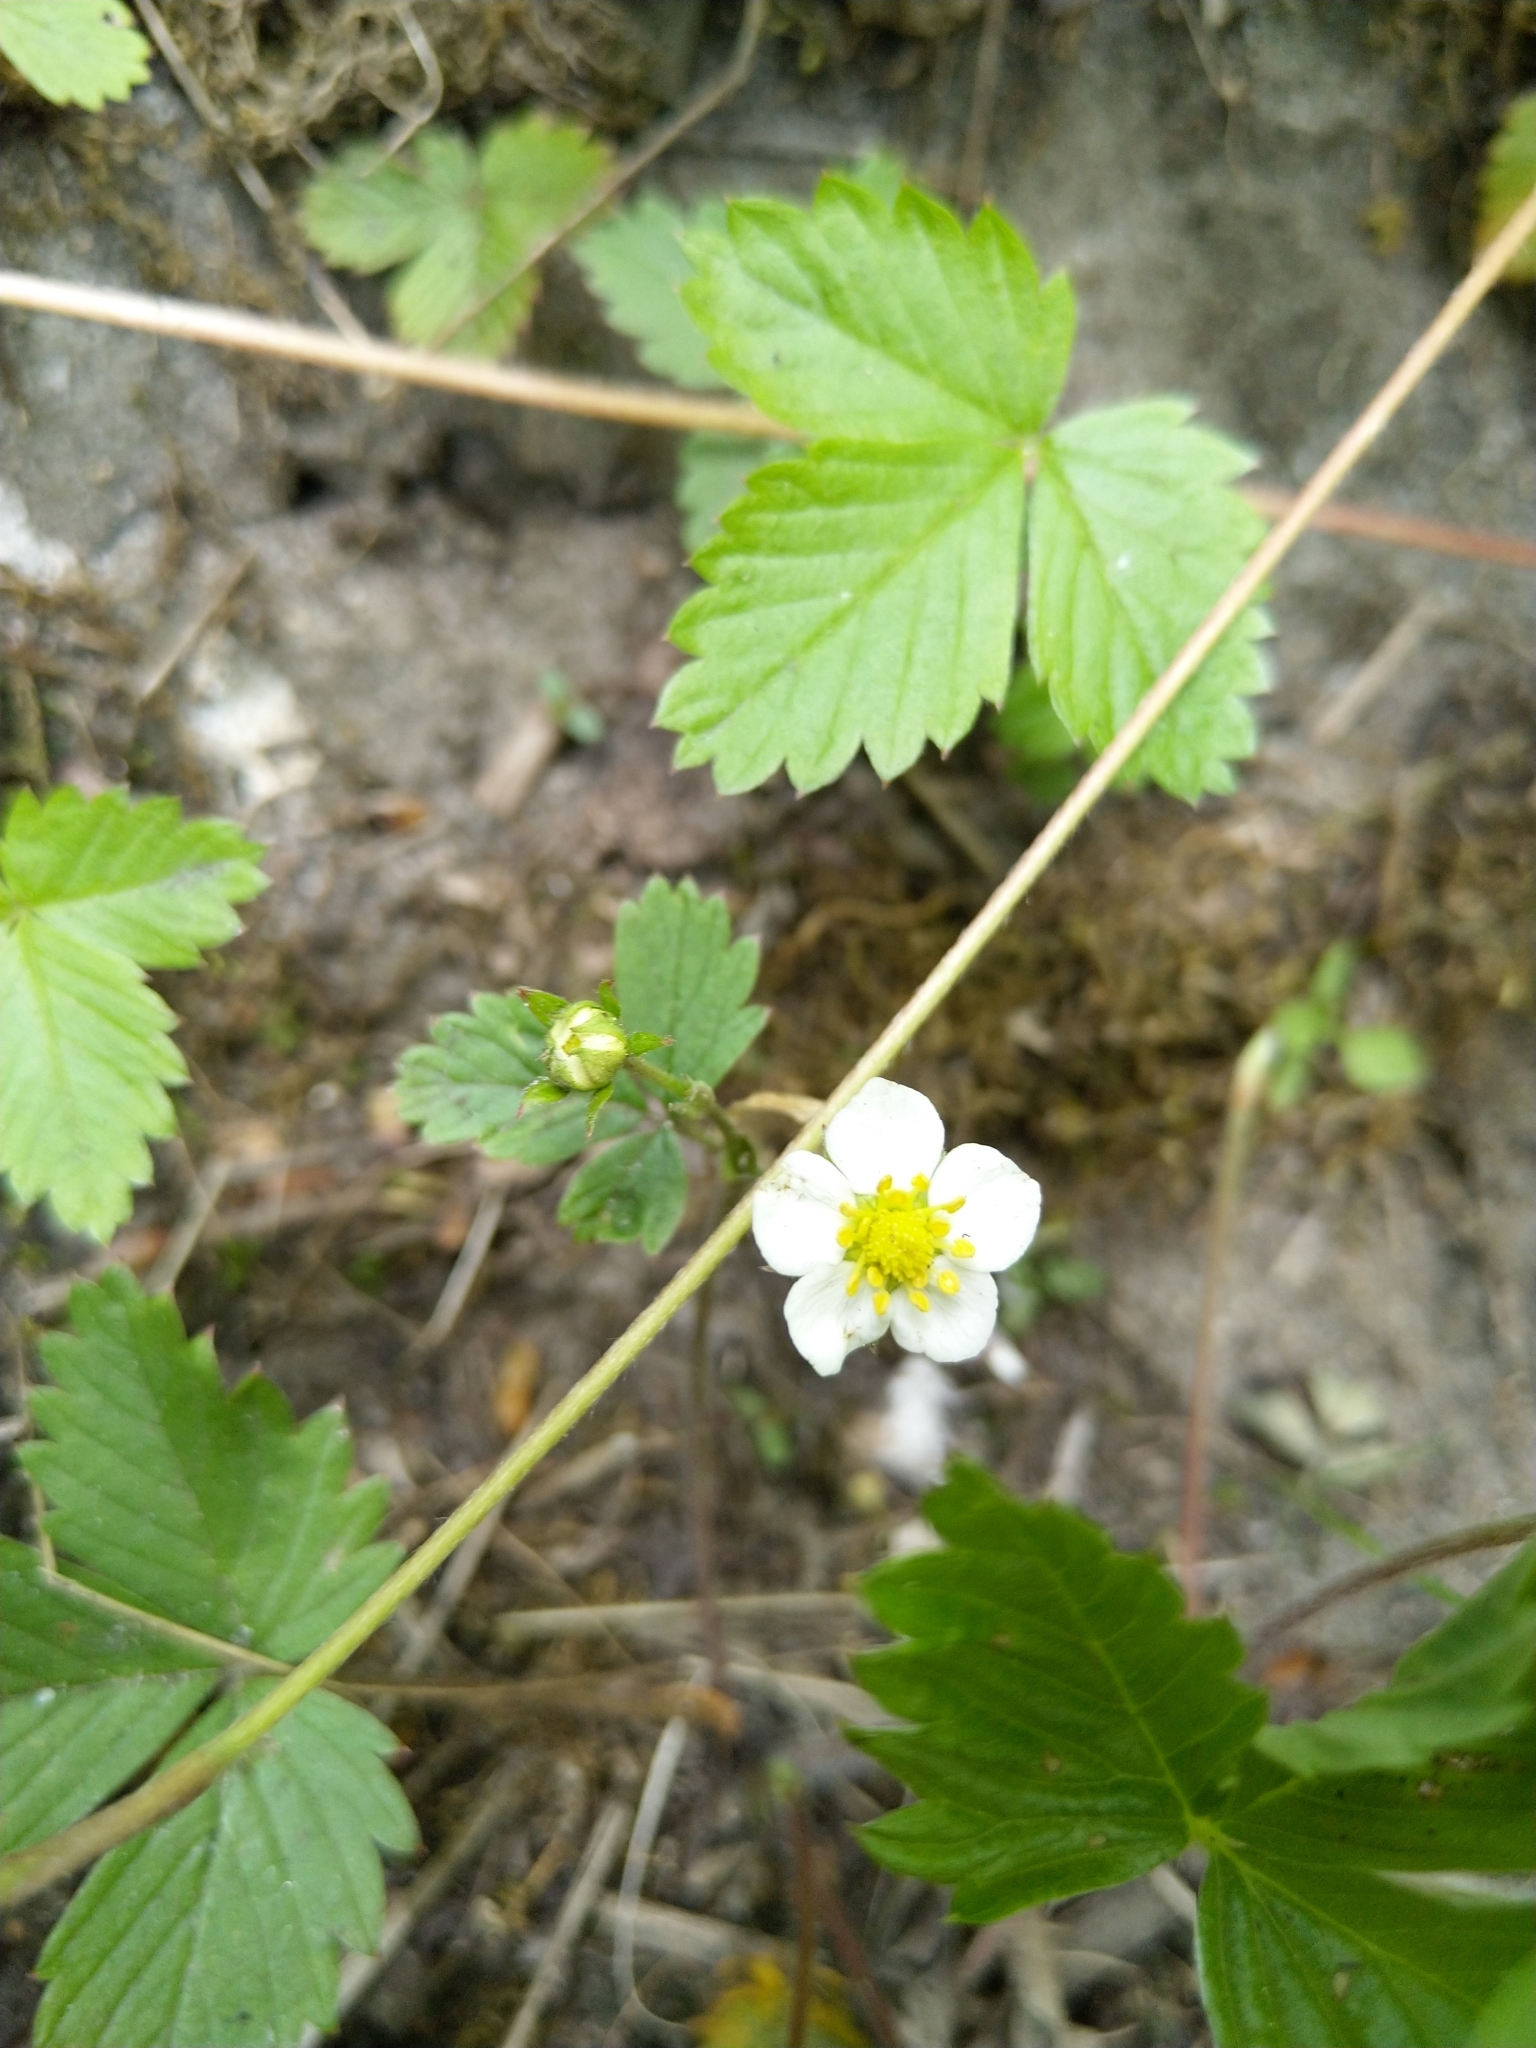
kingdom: Plantae
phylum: Tracheophyta
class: Magnoliopsida
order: Rosales
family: Rosaceae
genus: Fragaria
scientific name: Fragaria vesca
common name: Wild strawberry
